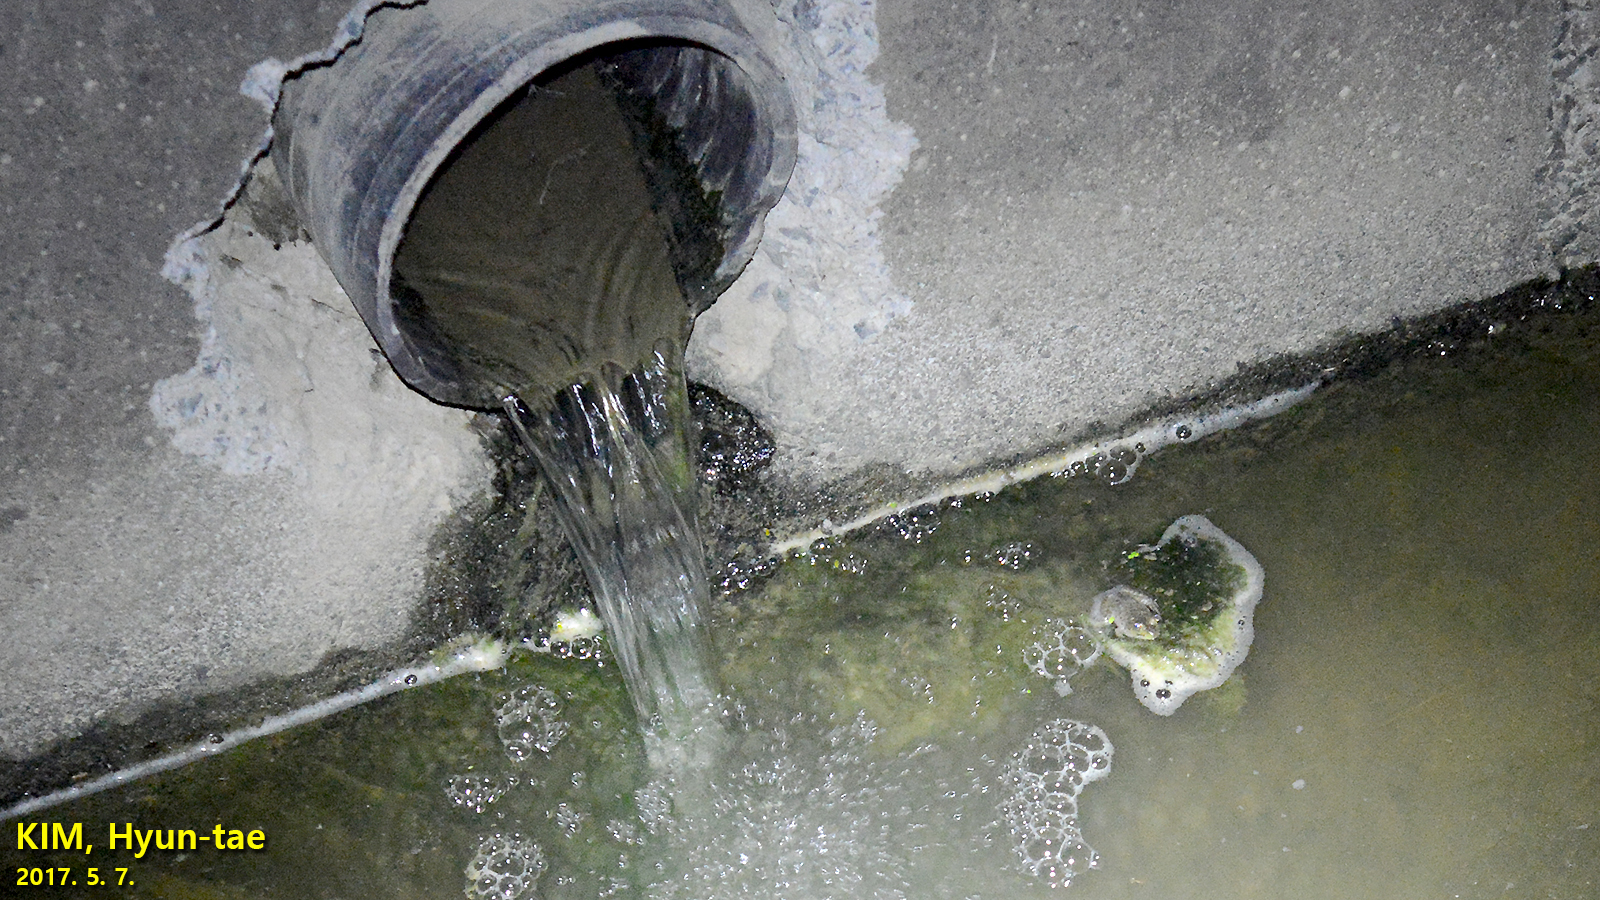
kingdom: Animalia
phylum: Chordata
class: Amphibia
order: Anura
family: Ranidae
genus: Lithobates
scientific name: Lithobates catesbeianus
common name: American bullfrog
